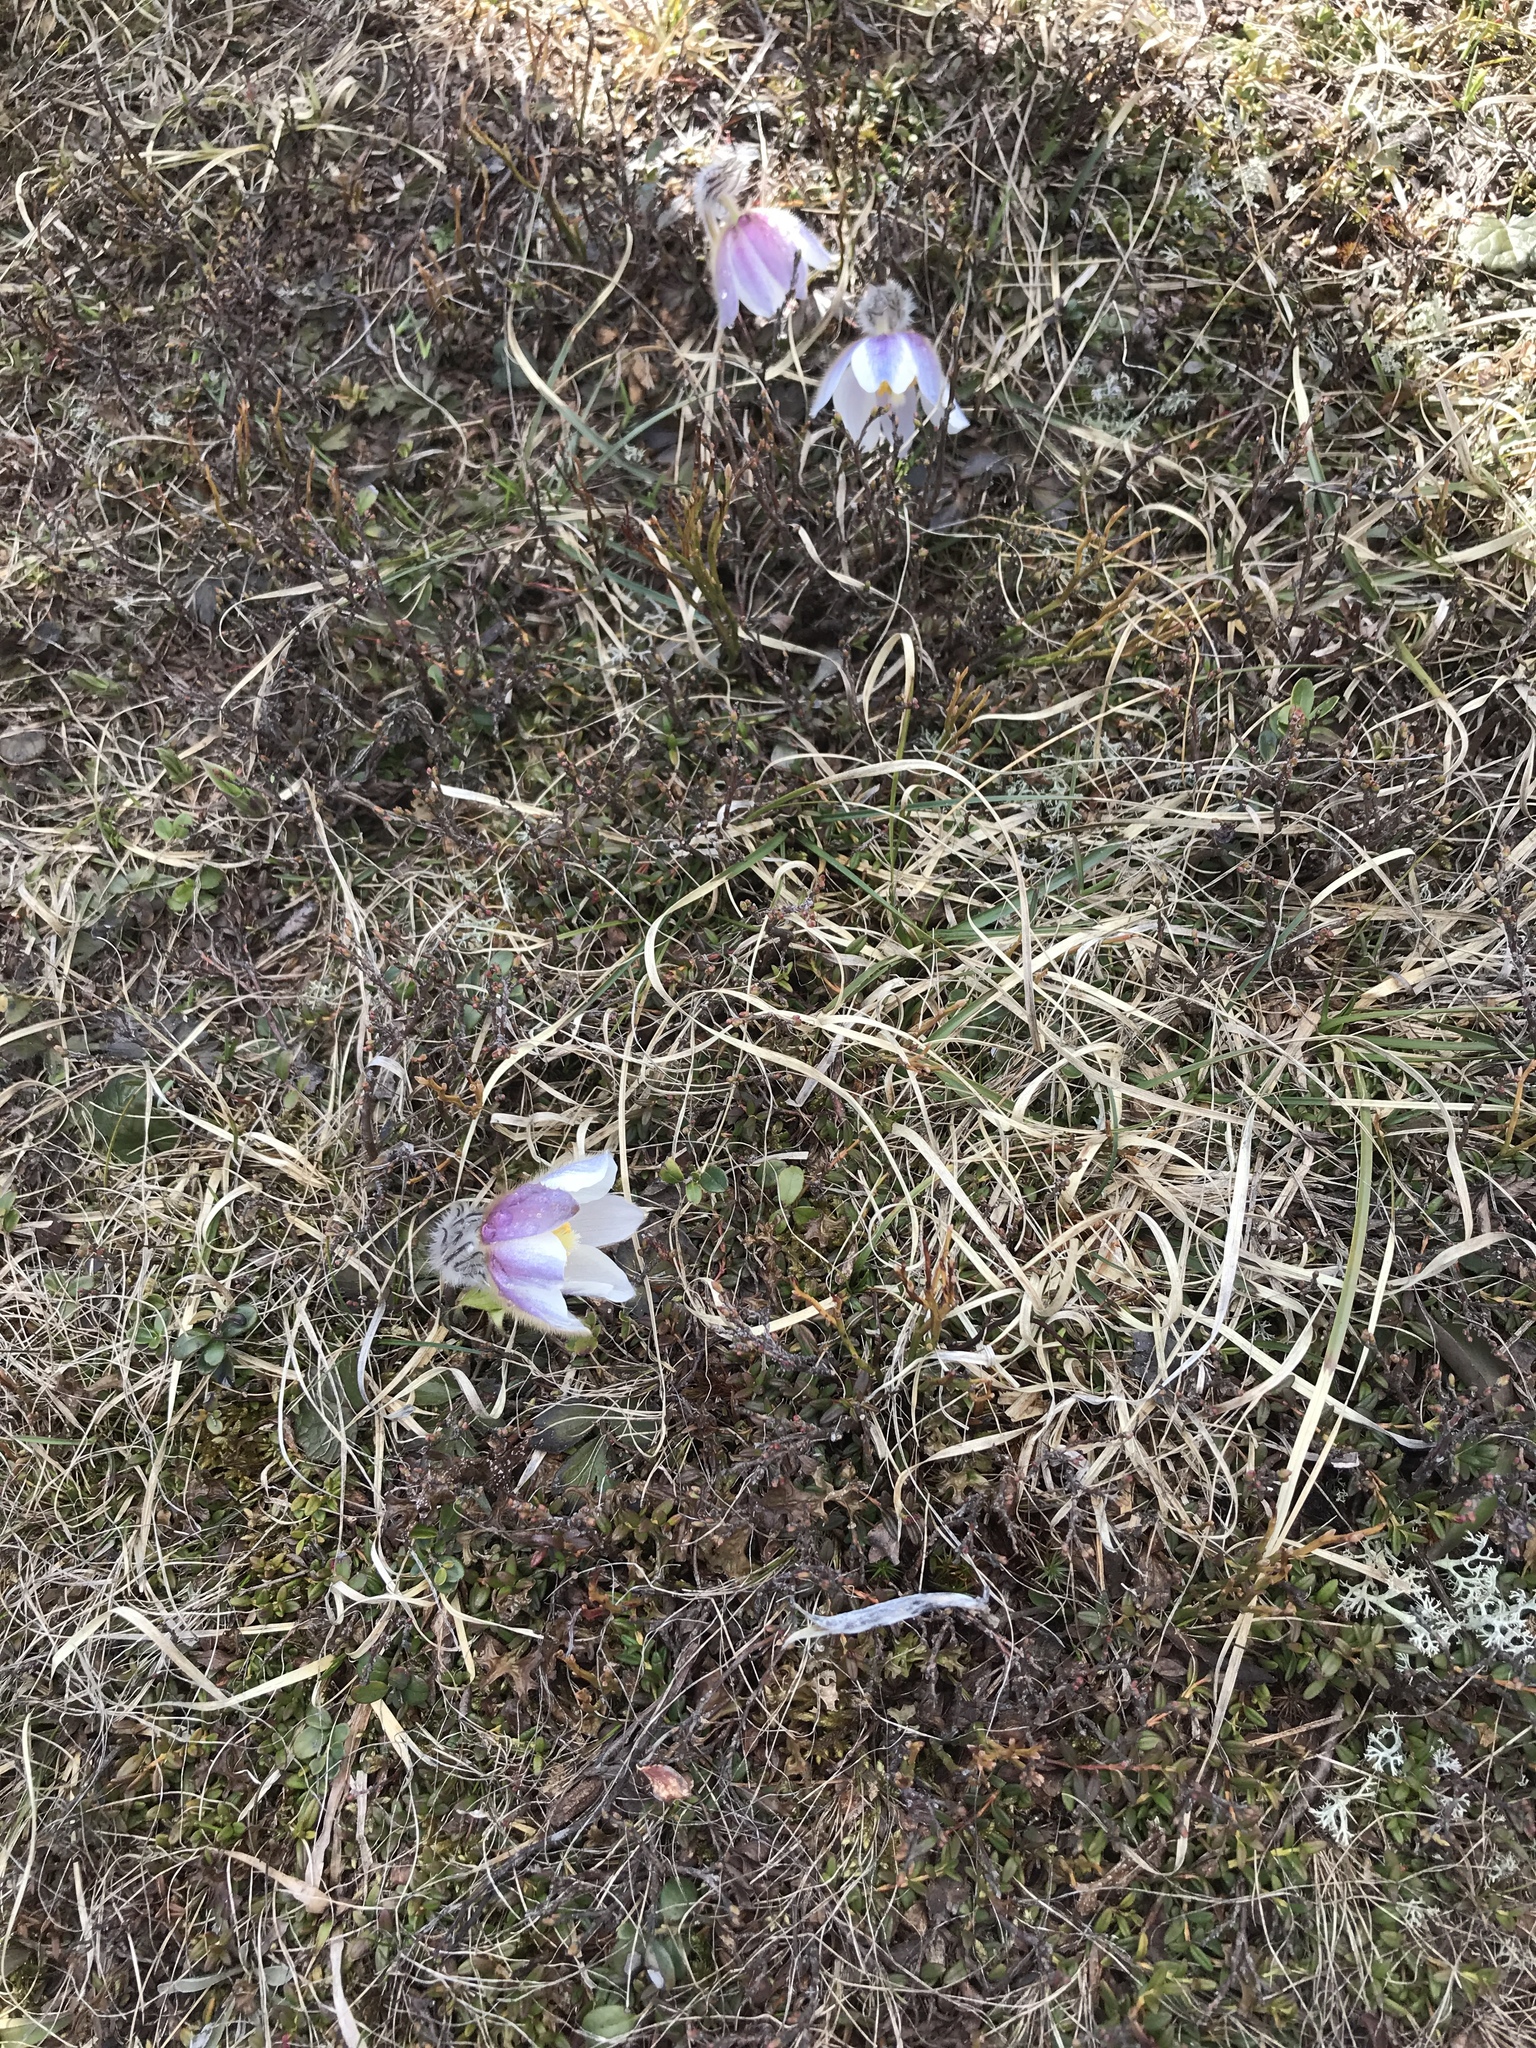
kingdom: Plantae
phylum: Tracheophyta
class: Magnoliopsida
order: Ranunculales
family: Ranunculaceae
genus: Pulsatilla
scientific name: Pulsatilla vernalis
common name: Spring pasque flower
